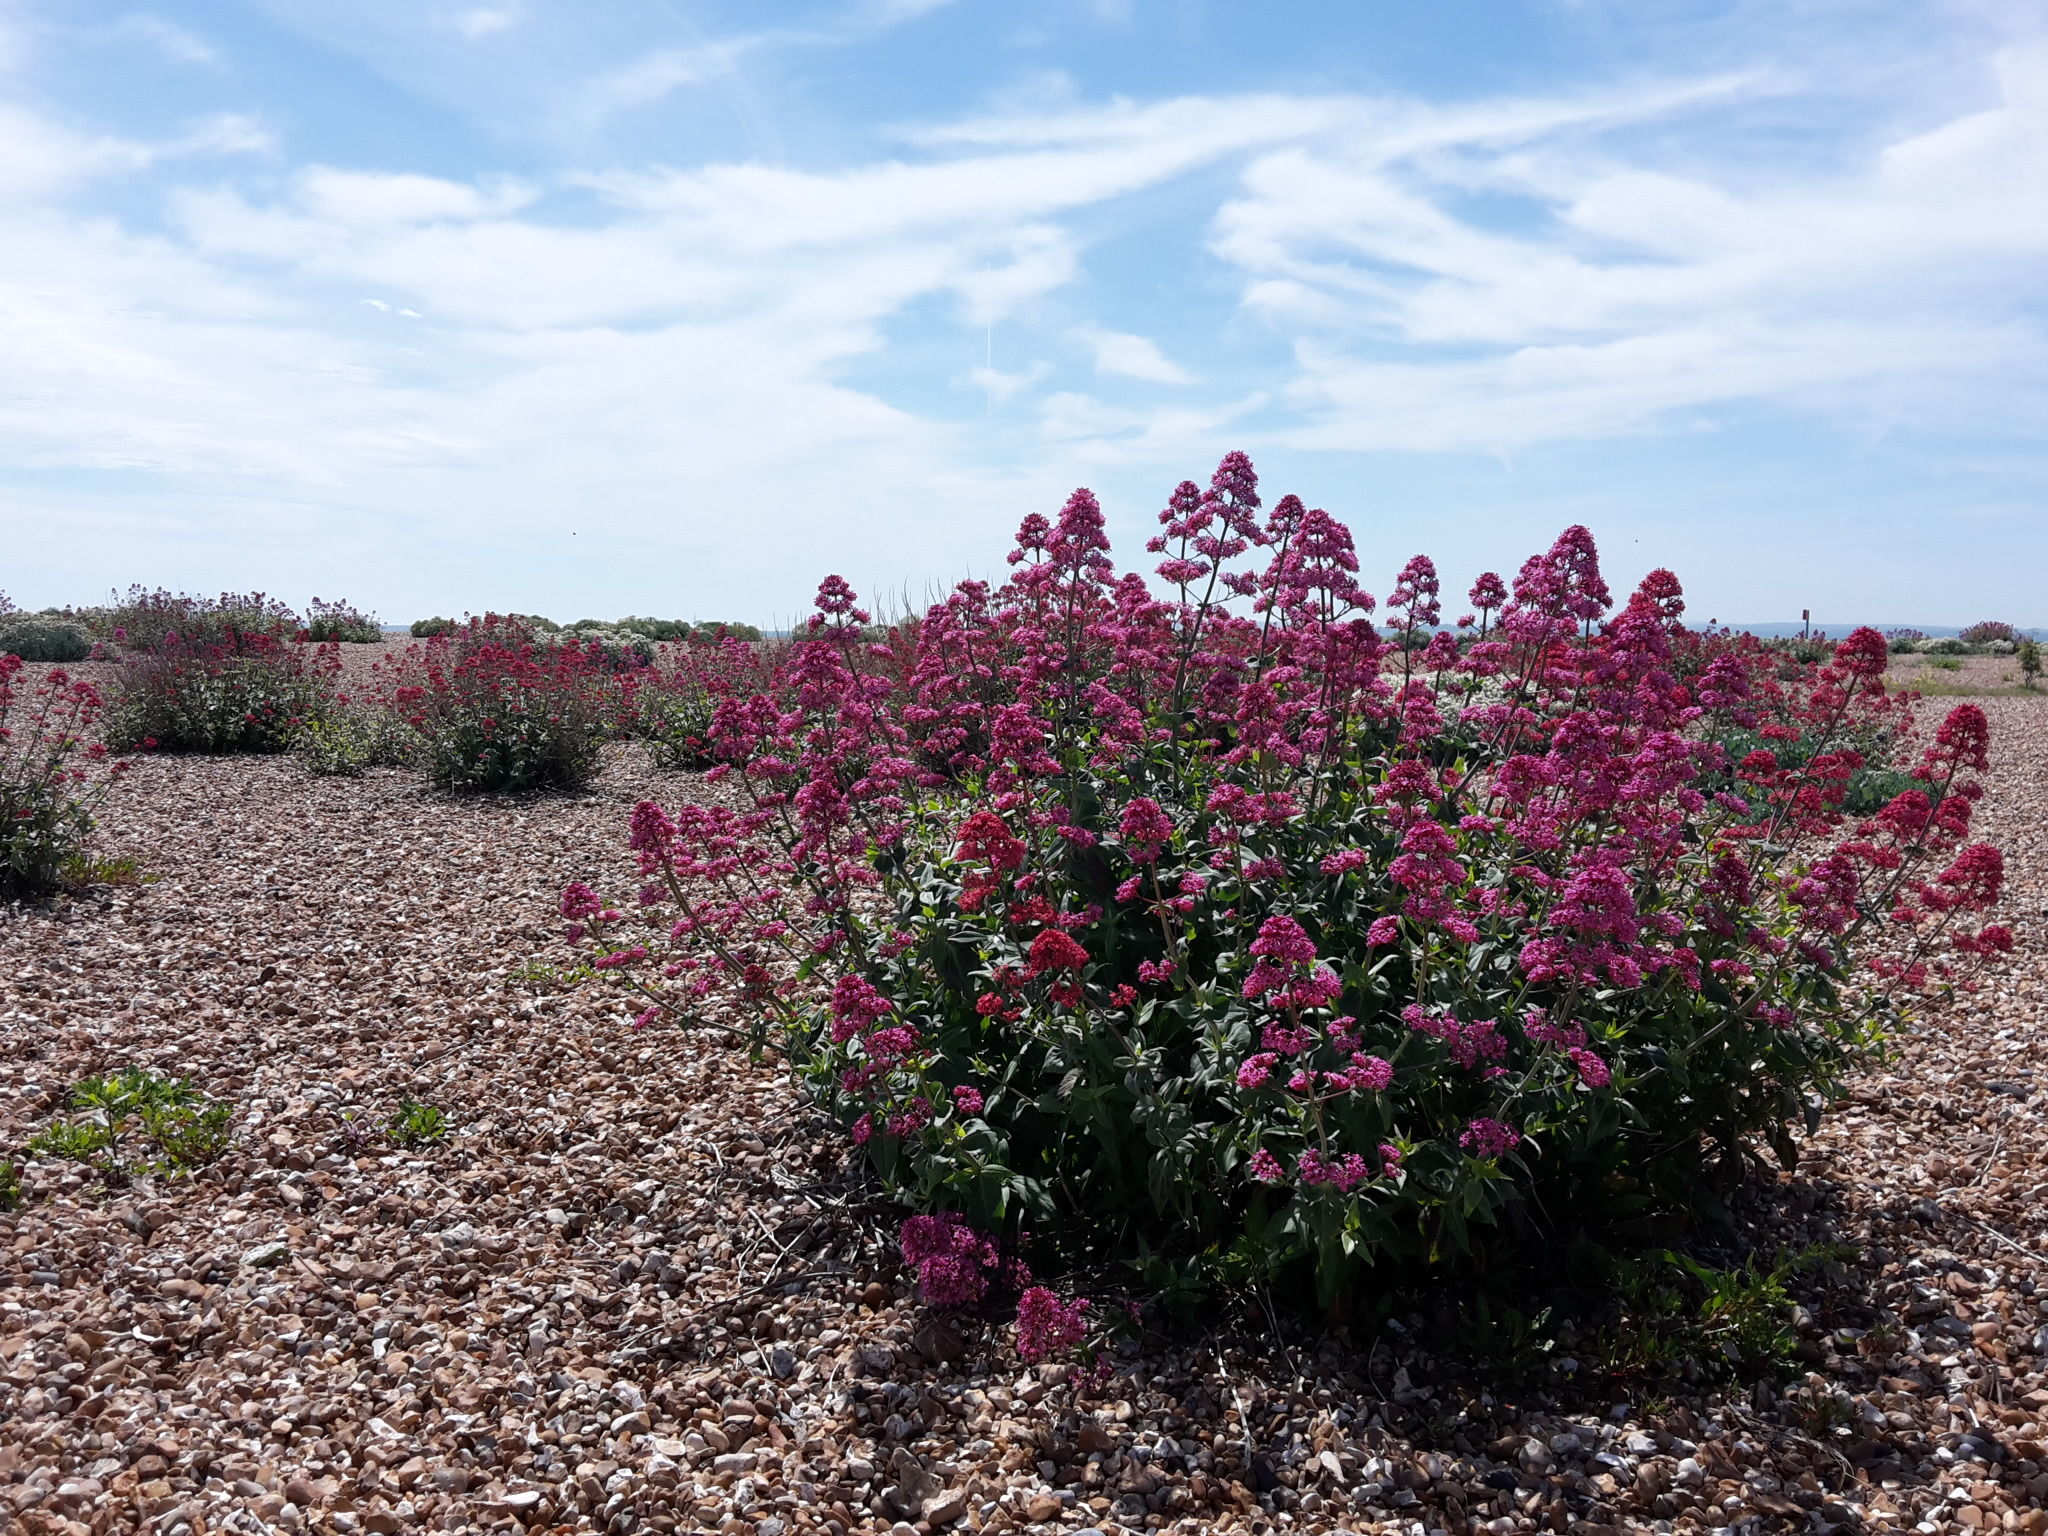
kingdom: Plantae
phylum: Tracheophyta
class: Magnoliopsida
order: Dipsacales
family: Caprifoliaceae
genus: Centranthus
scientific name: Centranthus ruber
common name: Red valerian
